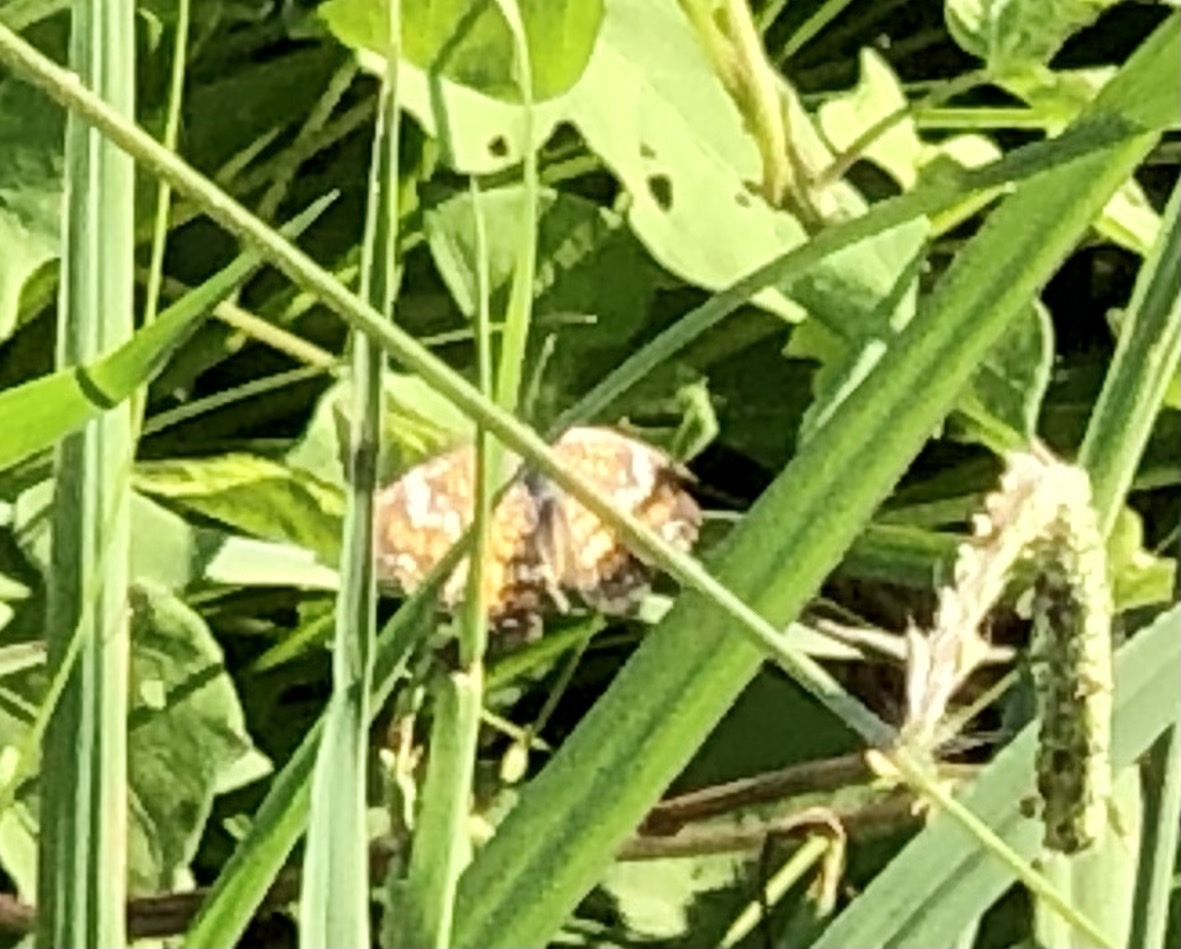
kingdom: Animalia
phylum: Arthropoda
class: Insecta
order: Lepidoptera
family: Nymphalidae
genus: Phyciodes
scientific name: Phyciodes phaon
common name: Phaon crescent
